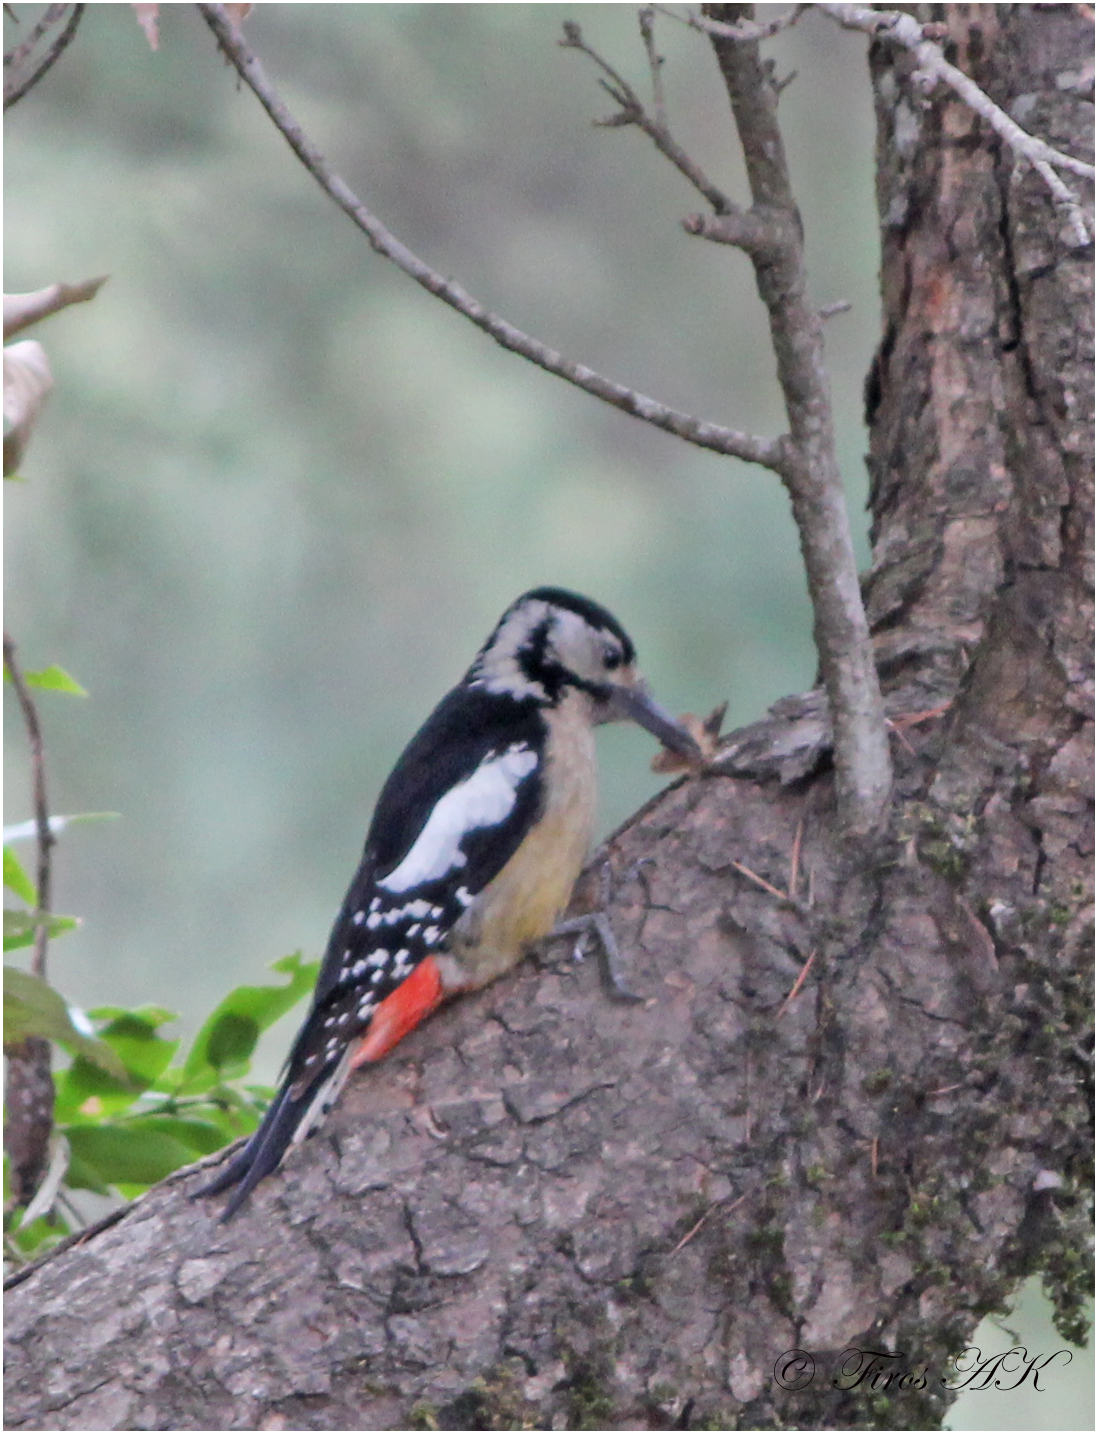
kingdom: Animalia
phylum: Chordata
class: Aves
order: Piciformes
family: Picidae
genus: Dendrocopos
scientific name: Dendrocopos himalayensis
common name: Himalayan woodpecker
